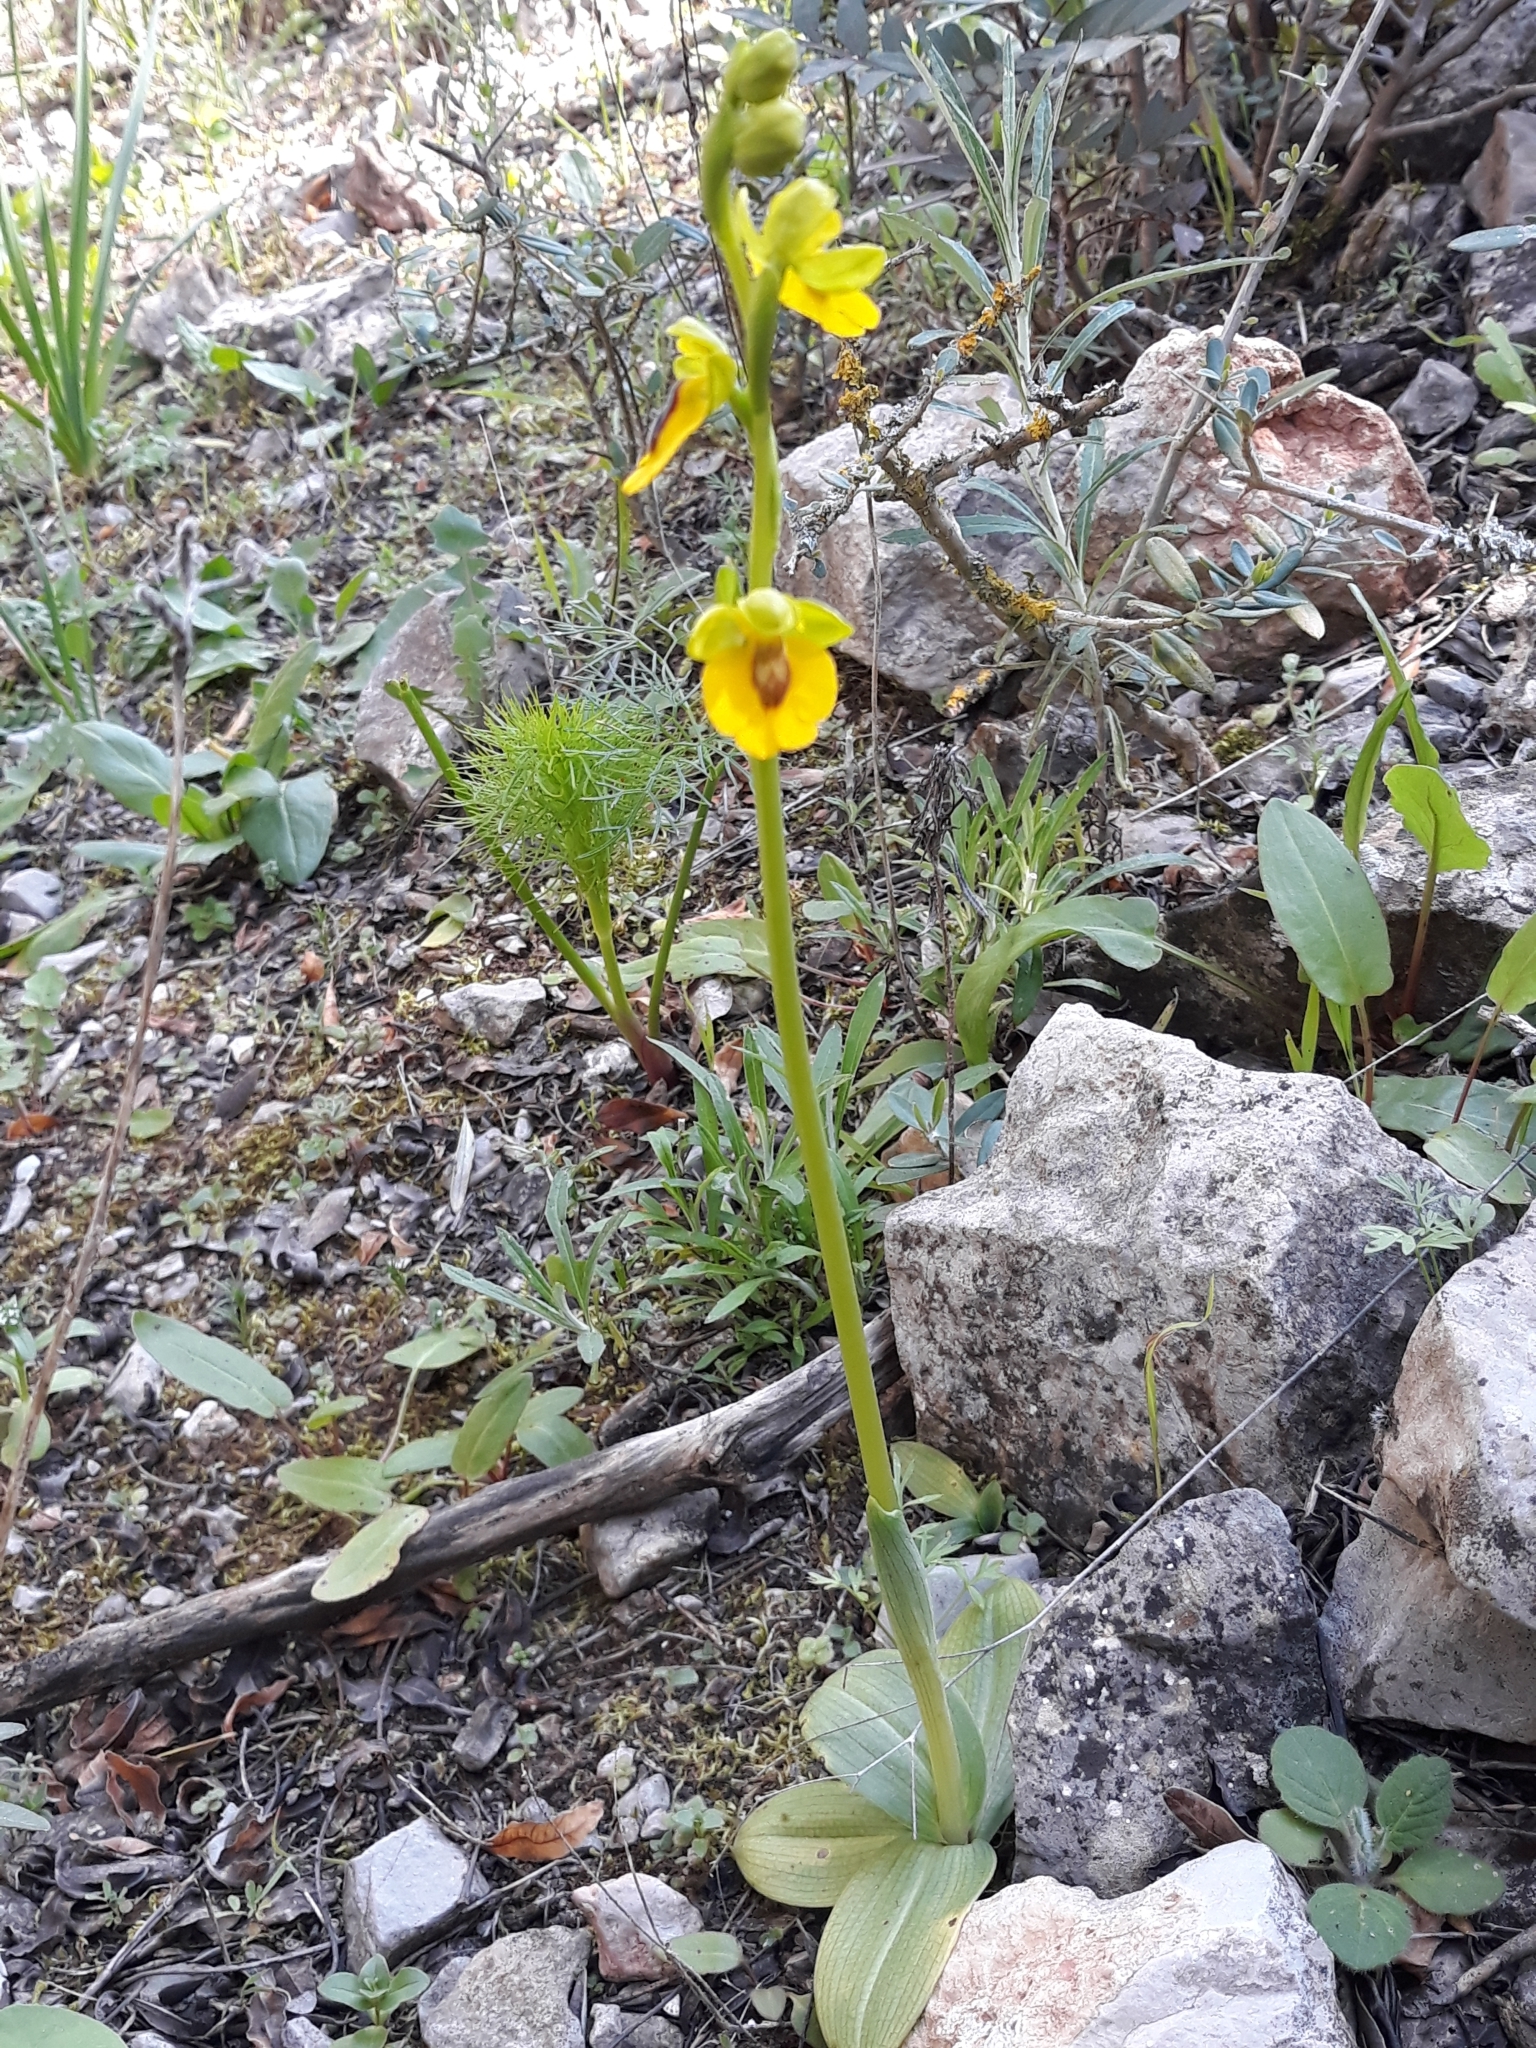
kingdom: Plantae
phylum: Tracheophyta
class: Liliopsida
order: Asparagales
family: Orchidaceae
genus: Ophrys
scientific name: Ophrys lutea
